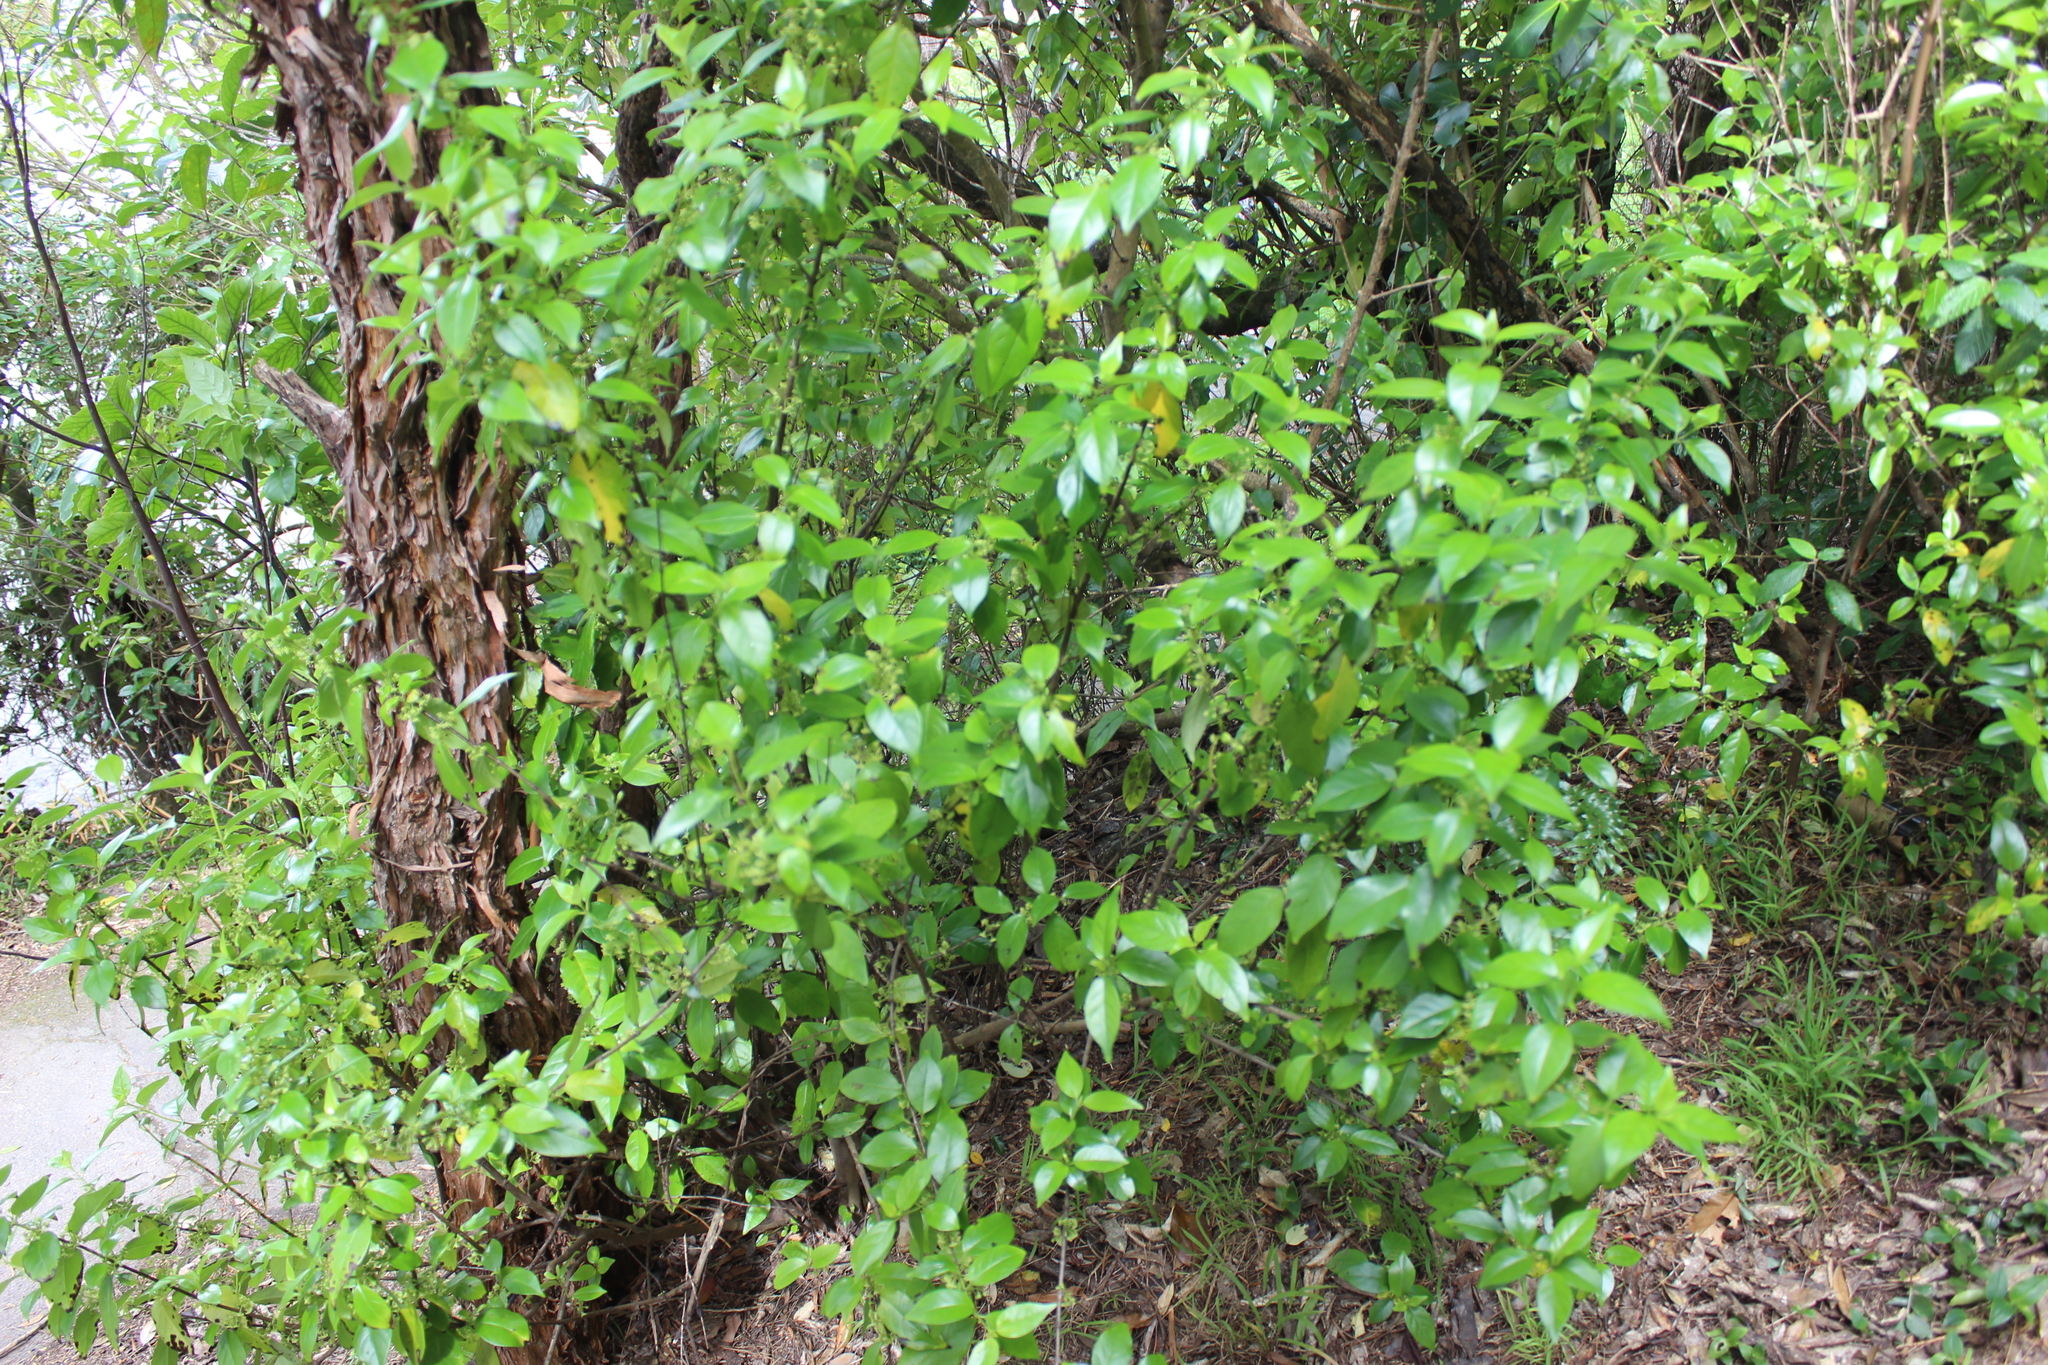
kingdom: Plantae
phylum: Tracheophyta
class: Magnoliopsida
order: Gentianales
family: Loganiaceae
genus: Geniostoma
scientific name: Geniostoma ligustrifolium
